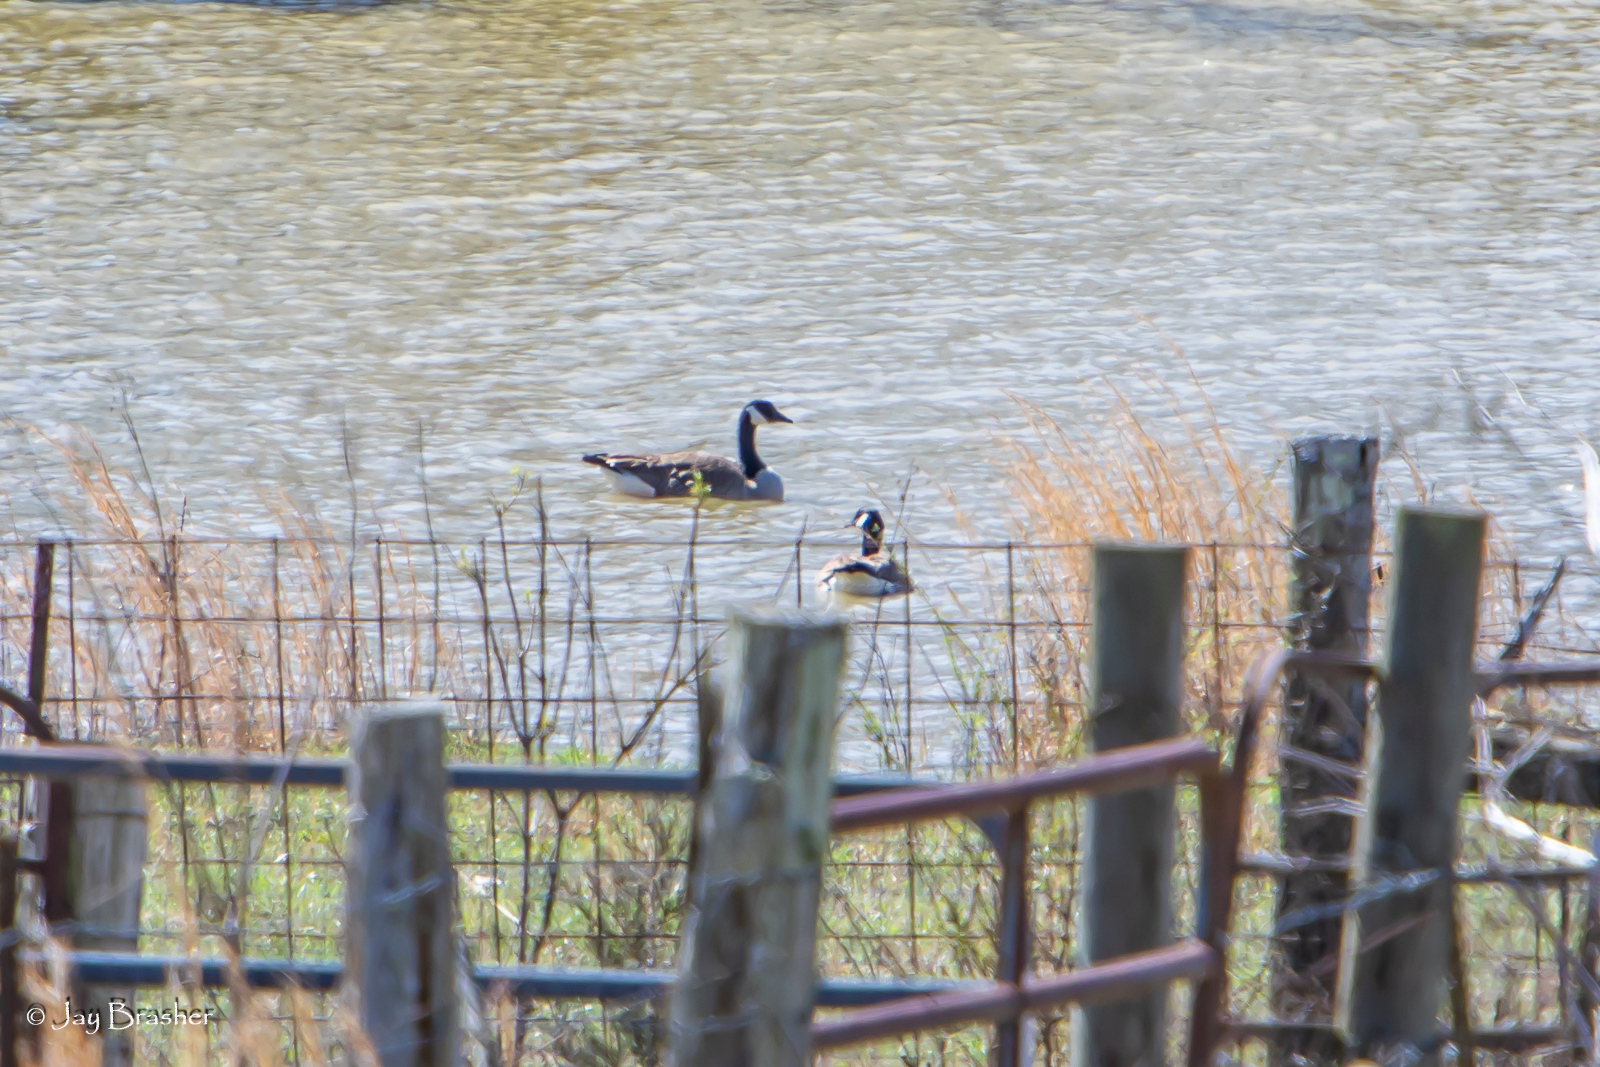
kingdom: Animalia
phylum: Chordata
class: Aves
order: Anseriformes
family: Anatidae
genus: Branta
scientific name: Branta canadensis
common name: Canada goose
